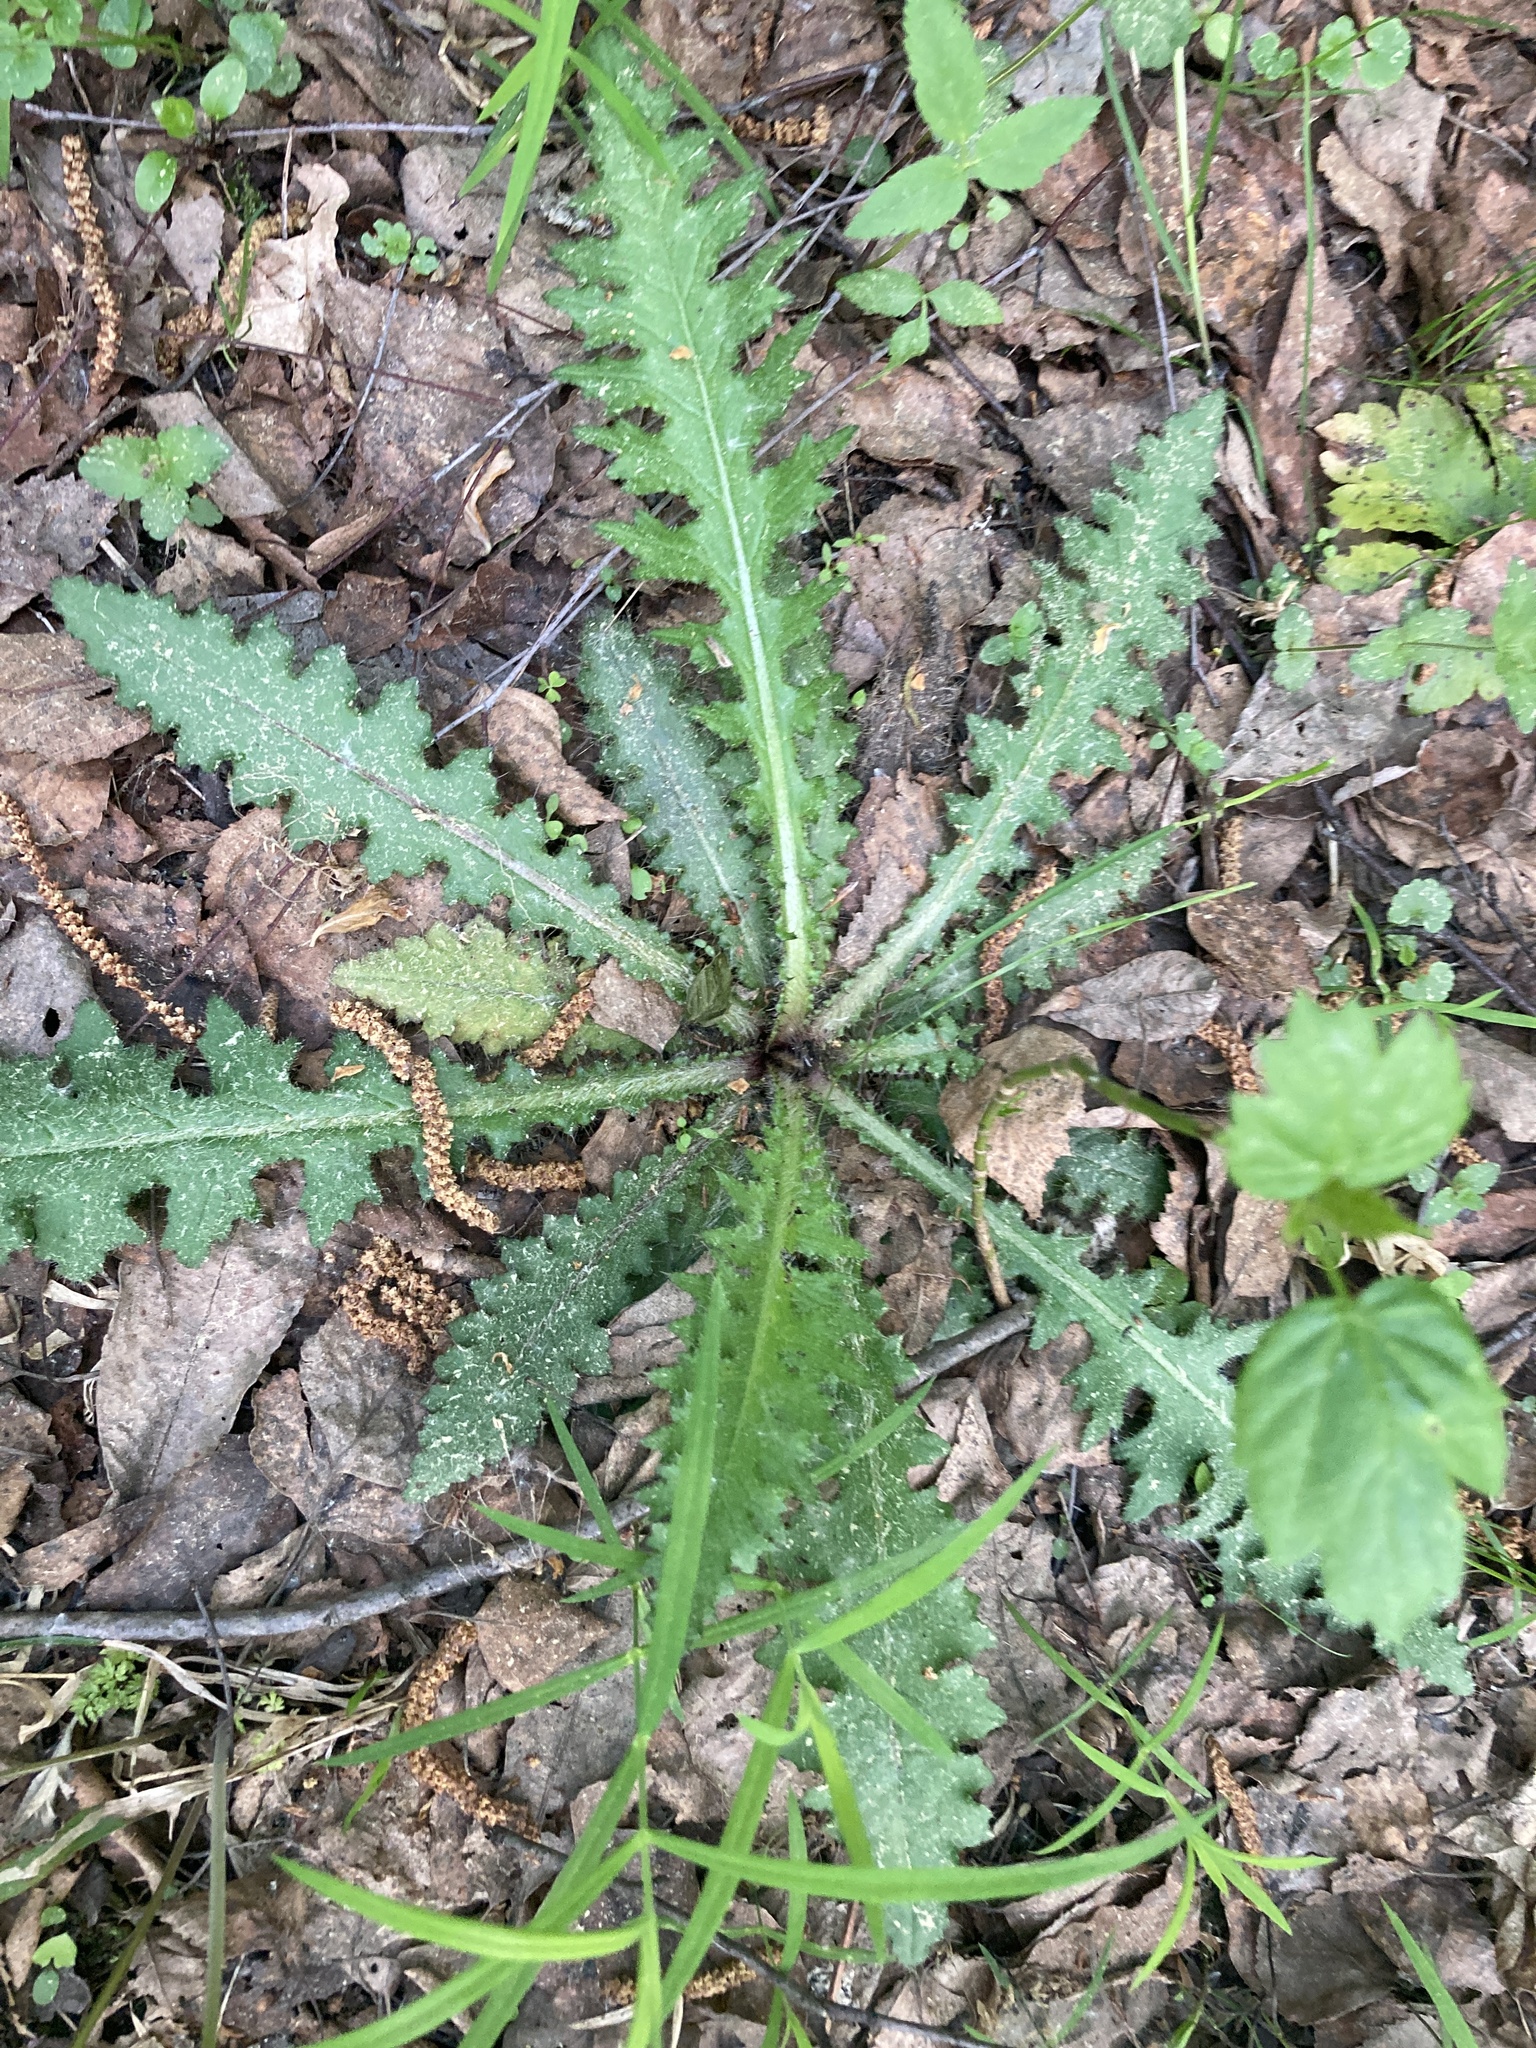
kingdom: Plantae
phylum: Tracheophyta
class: Magnoliopsida
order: Asterales
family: Asteraceae
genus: Cirsium
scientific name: Cirsium palustre
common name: Marsh thistle
